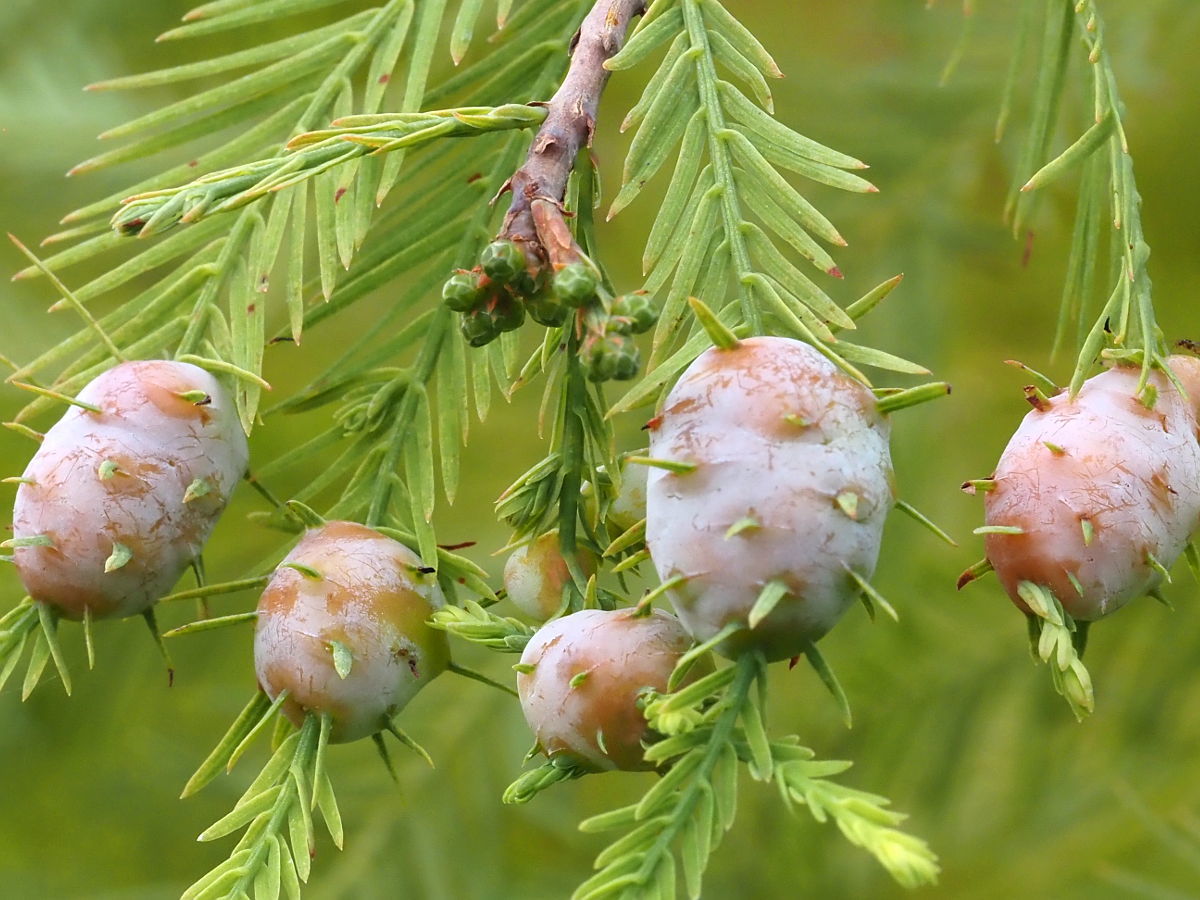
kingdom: Animalia
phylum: Arthropoda
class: Insecta
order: Diptera
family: Cecidomyiidae
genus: Taxodiomyia
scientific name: Taxodiomyia cupressiananassa
